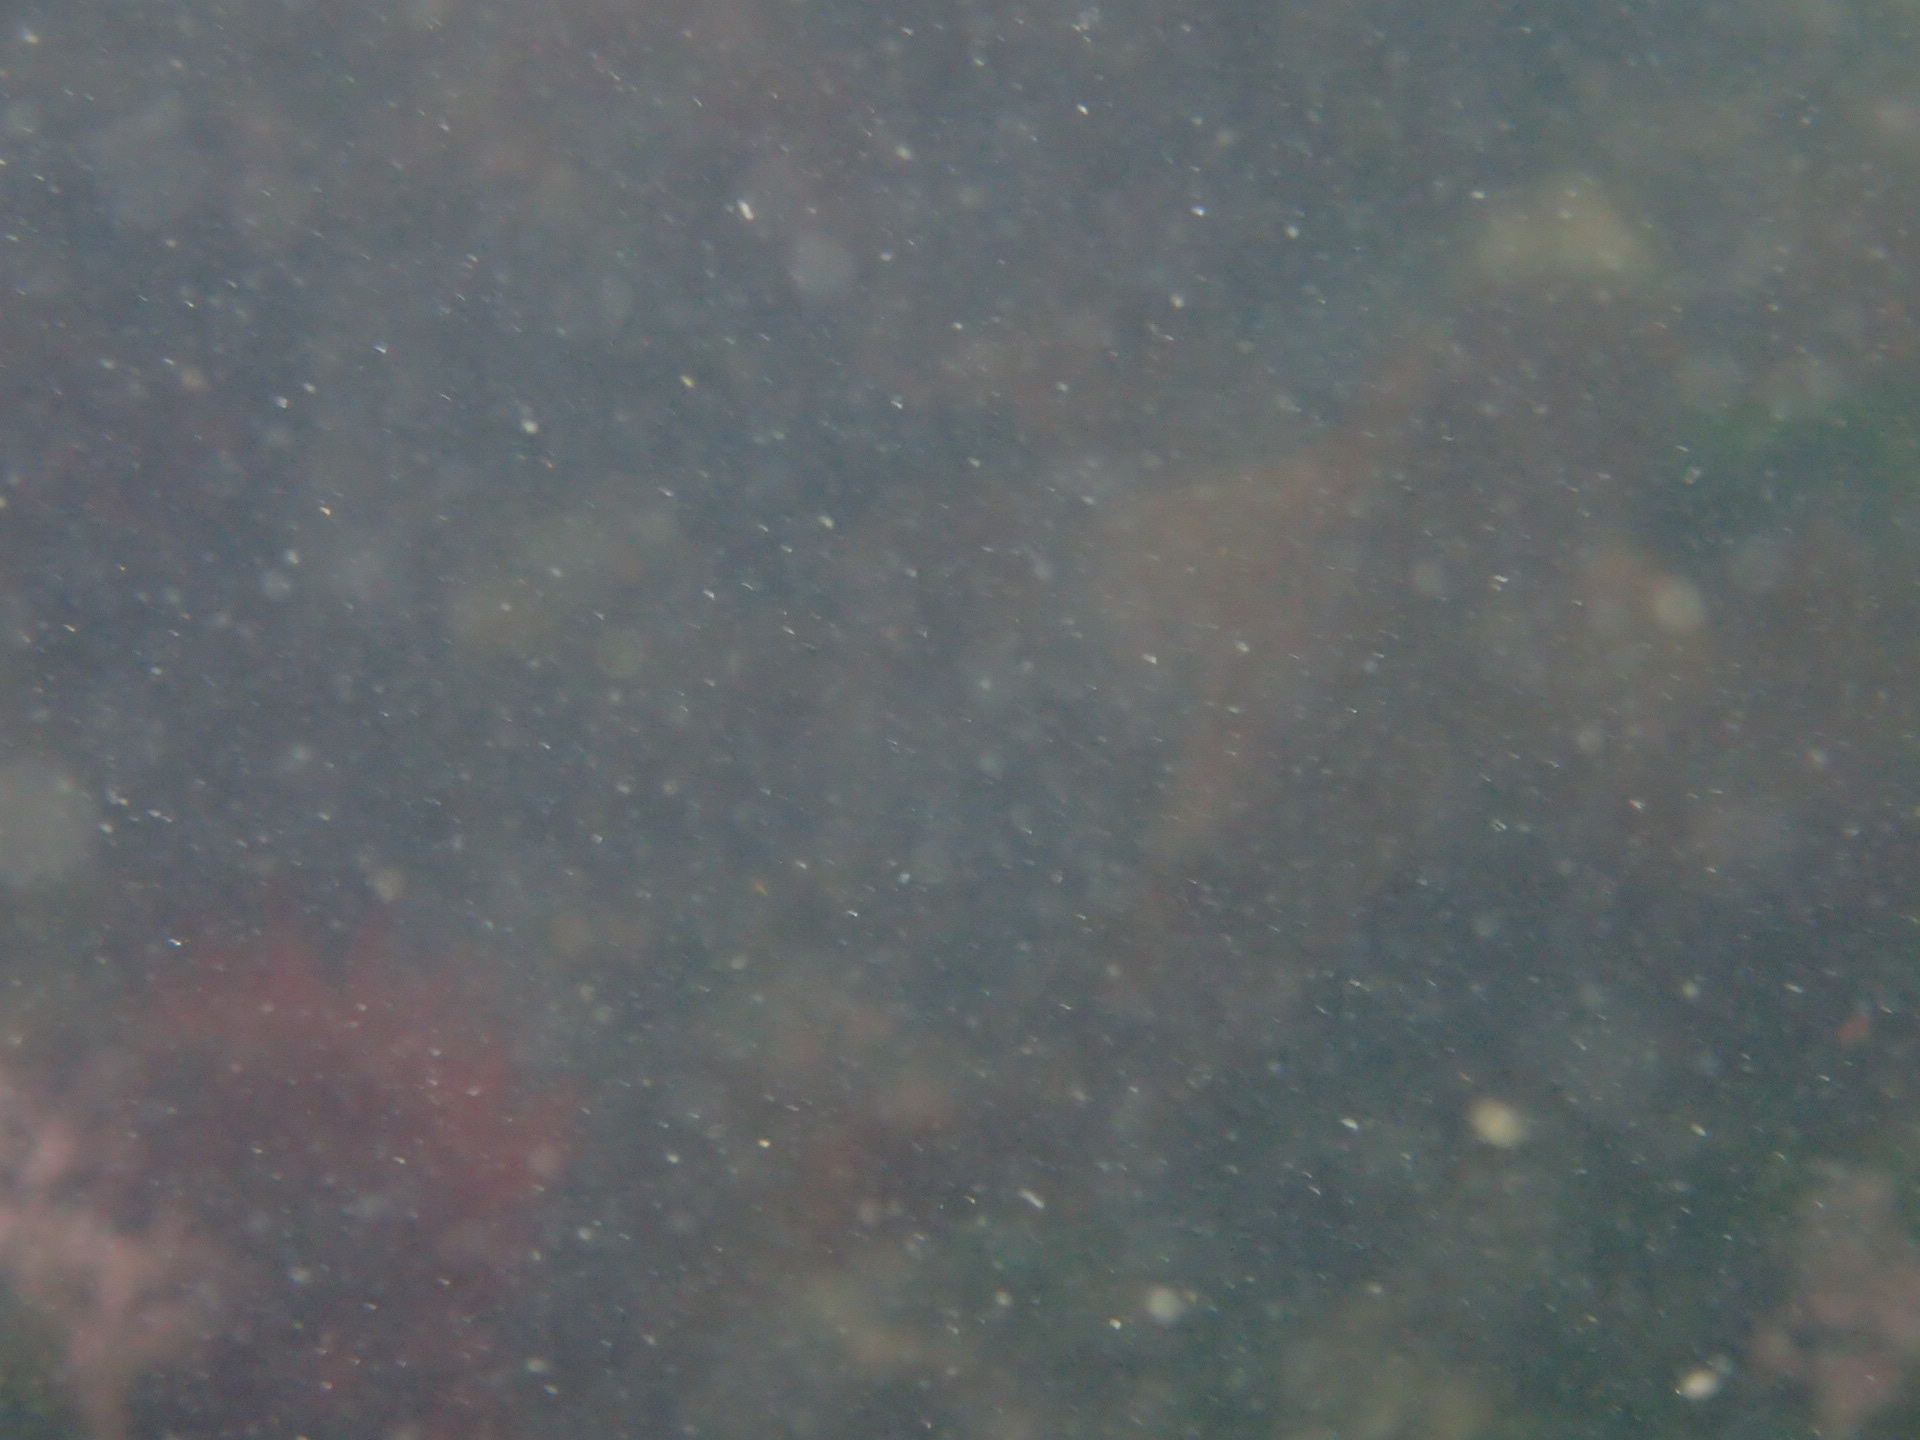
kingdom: Animalia
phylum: Chordata
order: Scorpaeniformes
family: Hexagrammidae
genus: Hexagrammos
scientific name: Hexagrammos decagrammus
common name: Kelp greenling
